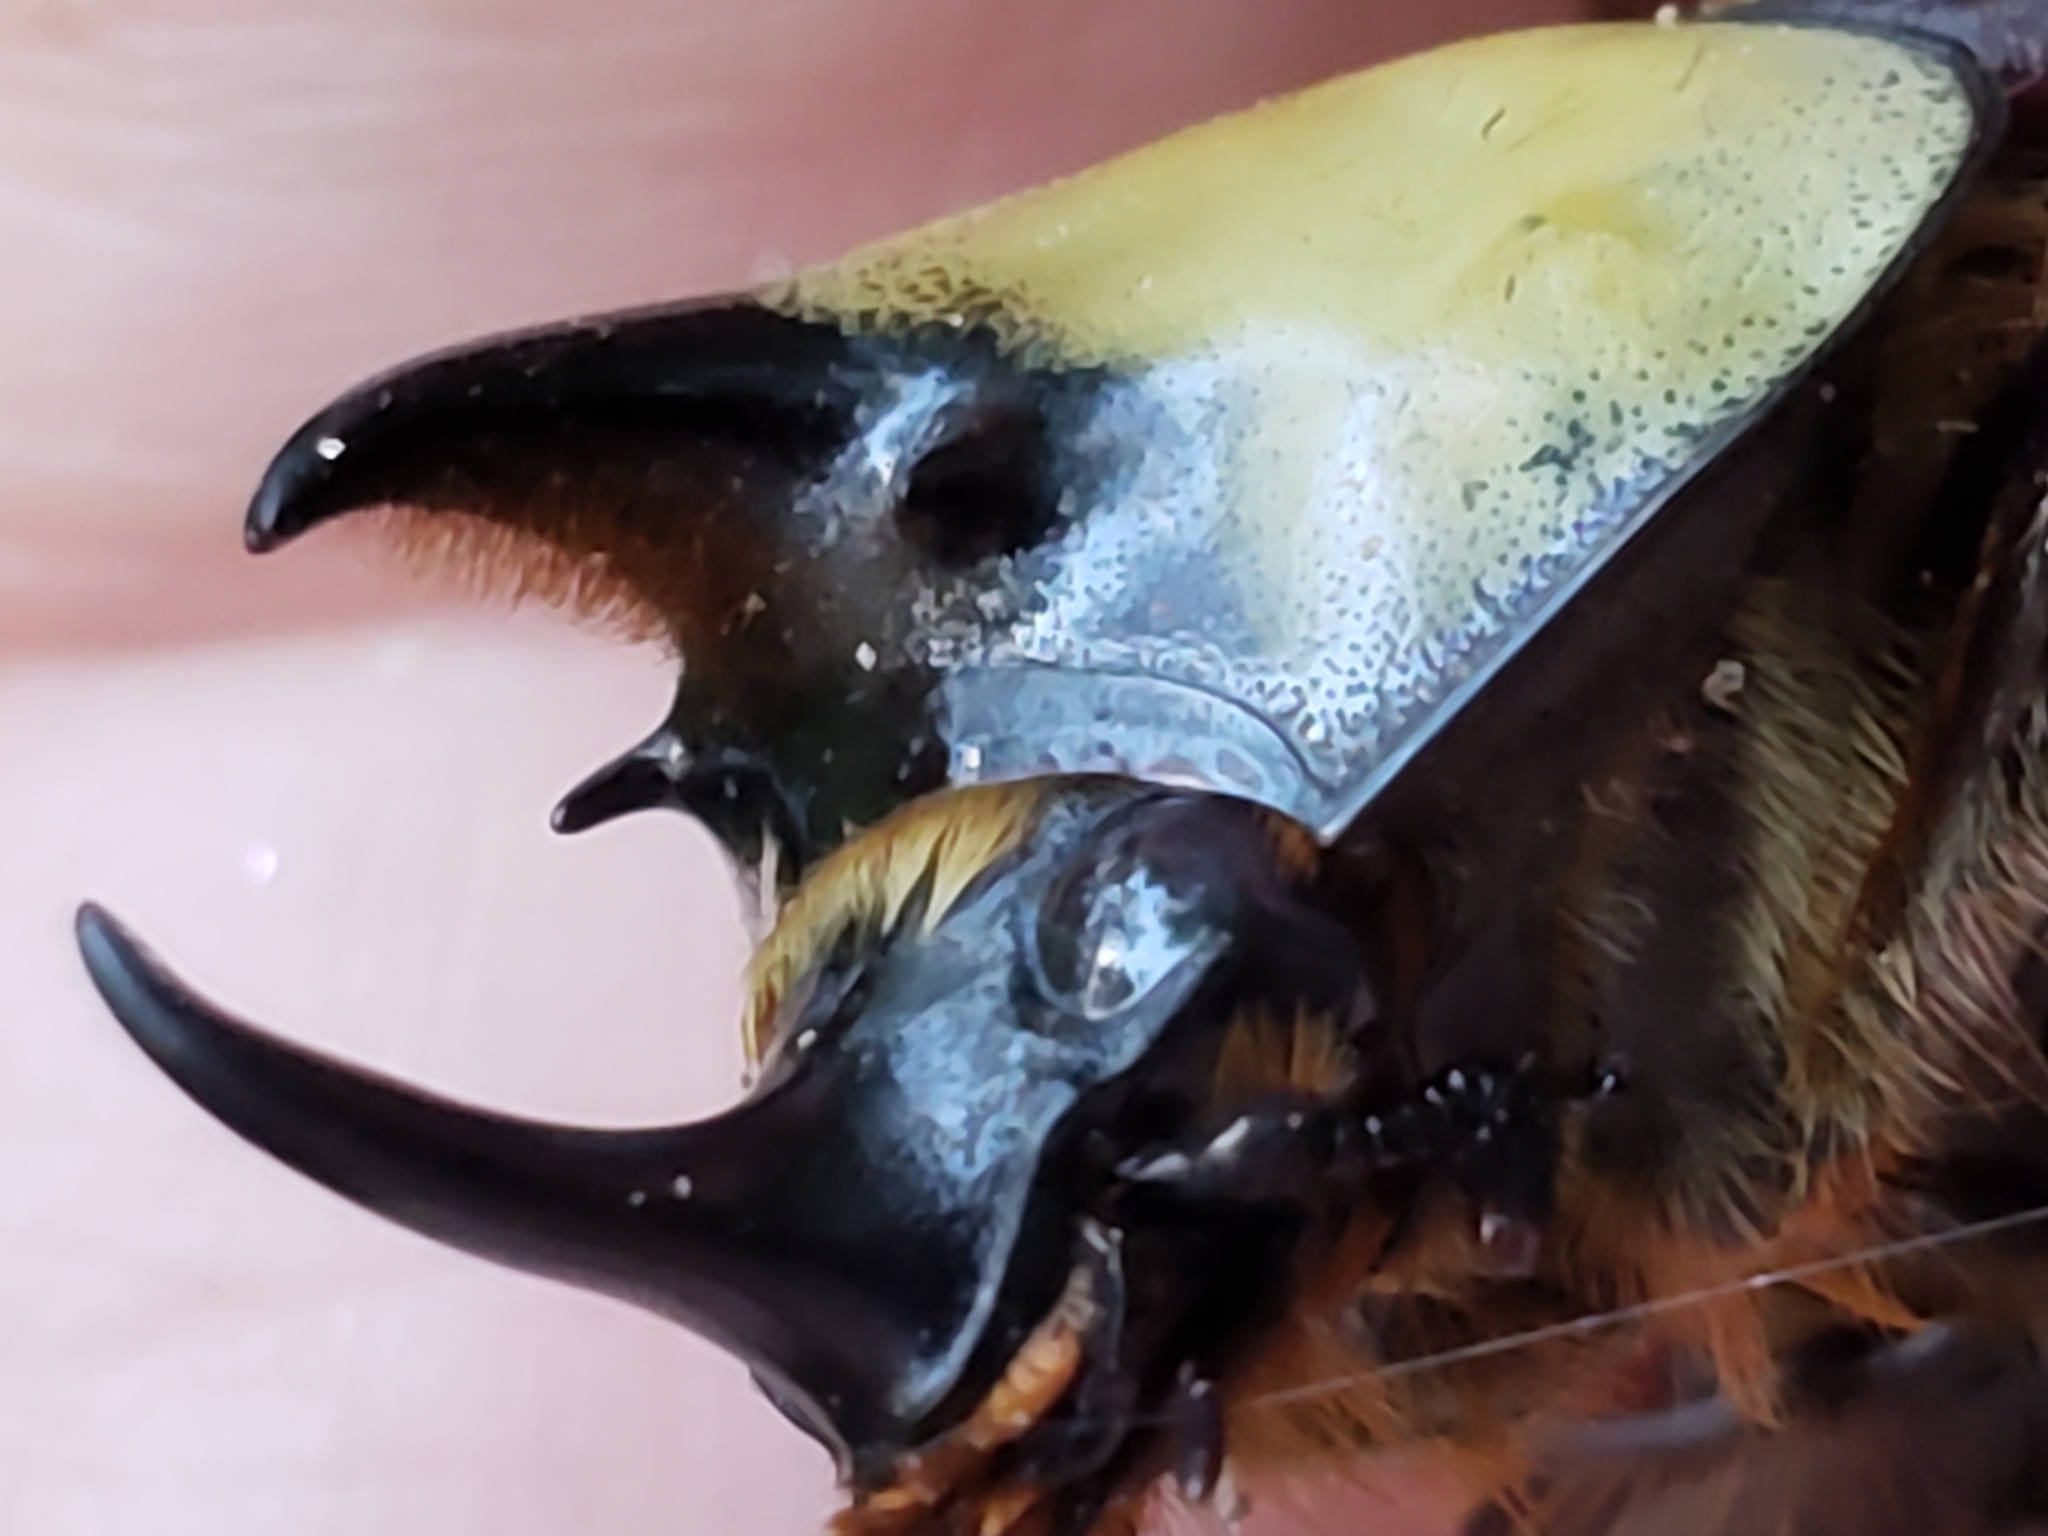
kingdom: Animalia
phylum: Arthropoda
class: Insecta
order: Coleoptera
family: Scarabaeidae
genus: Dynastes
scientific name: Dynastes tityus
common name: Eastern hercules beetle
